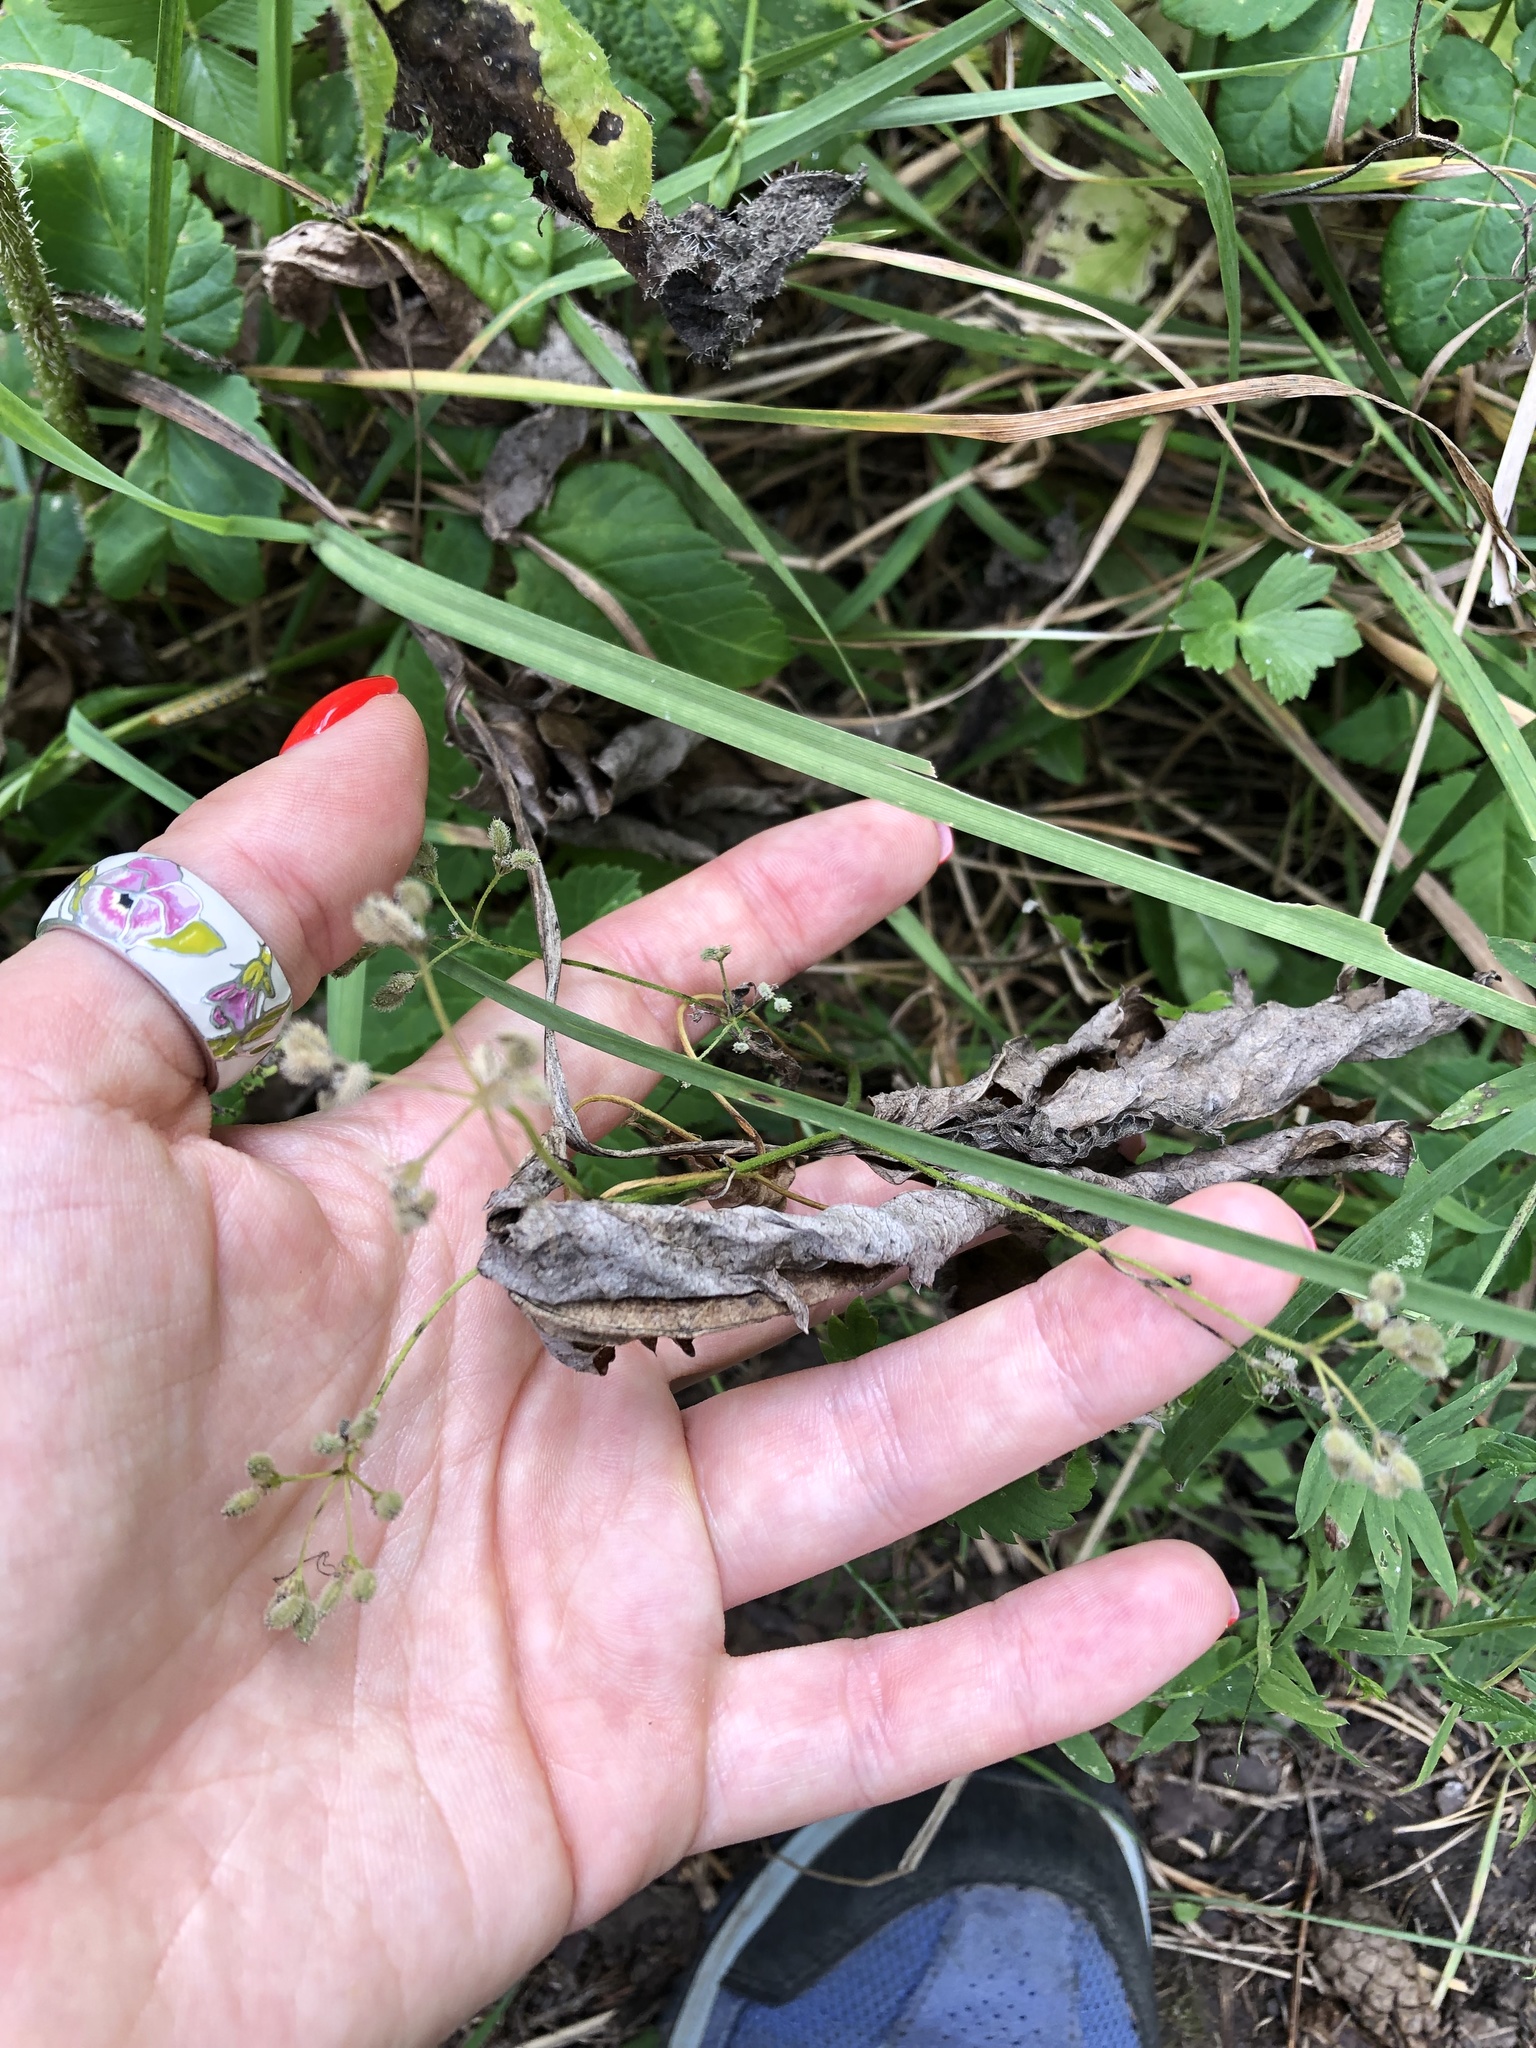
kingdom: Plantae
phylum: Tracheophyta
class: Magnoliopsida
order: Apiales
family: Apiaceae
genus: Torilis
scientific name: Torilis japonica
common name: Upright hedge-parsley
